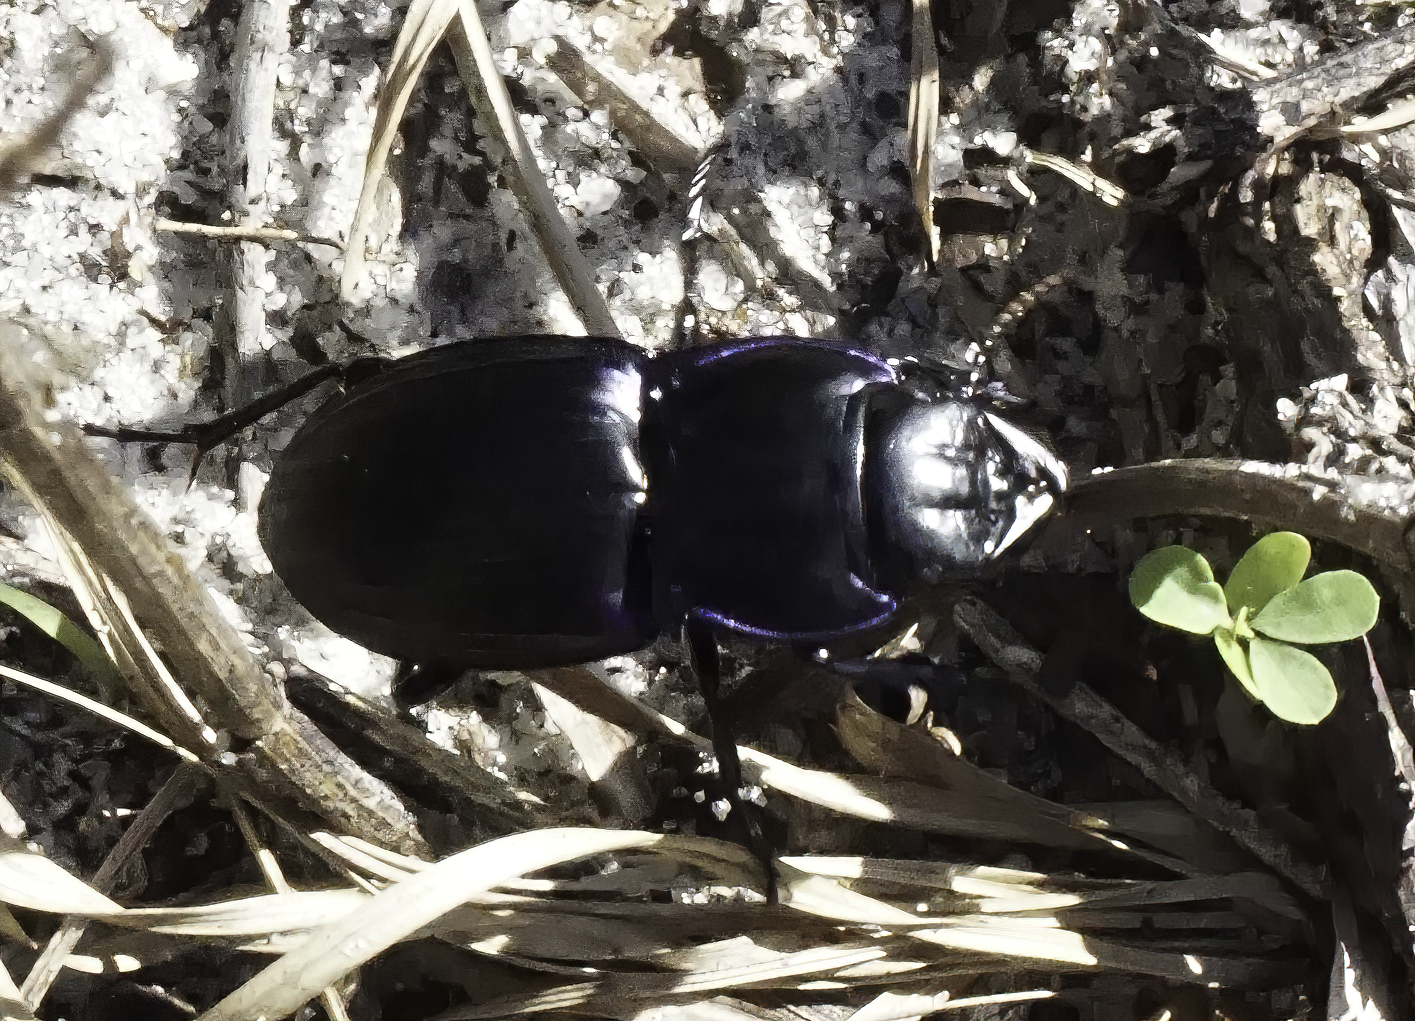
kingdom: Animalia
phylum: Arthropoda
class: Insecta
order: Coleoptera
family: Carabidae
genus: Pasimachus
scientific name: Pasimachus subsulcatus
